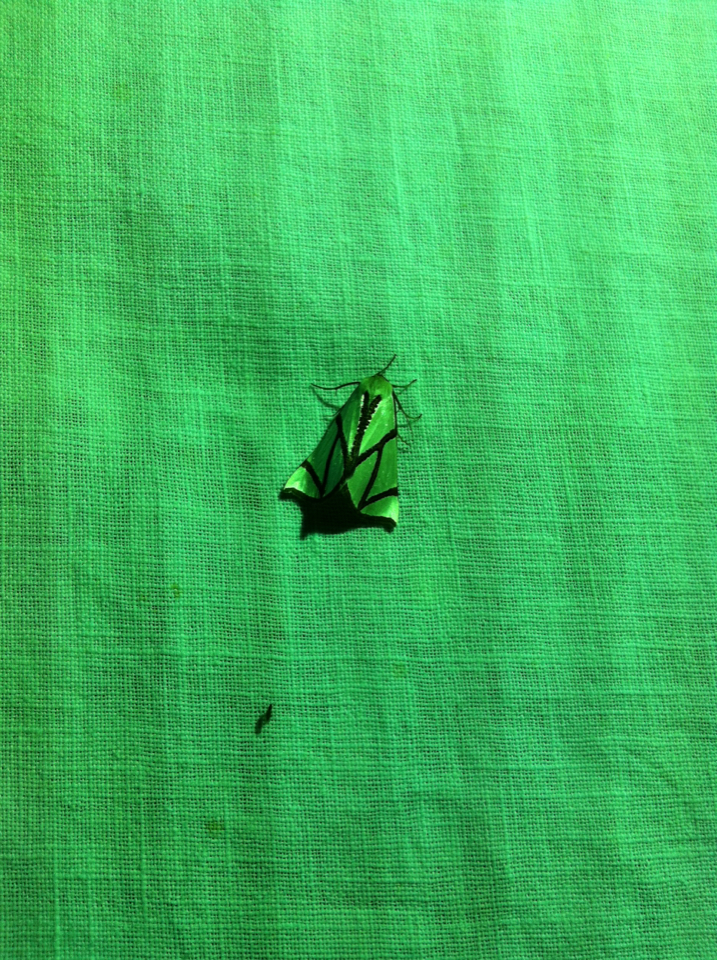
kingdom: Animalia
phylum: Arthropoda
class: Insecta
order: Lepidoptera
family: Geometridae
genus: Thalaina
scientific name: Thalaina clara
